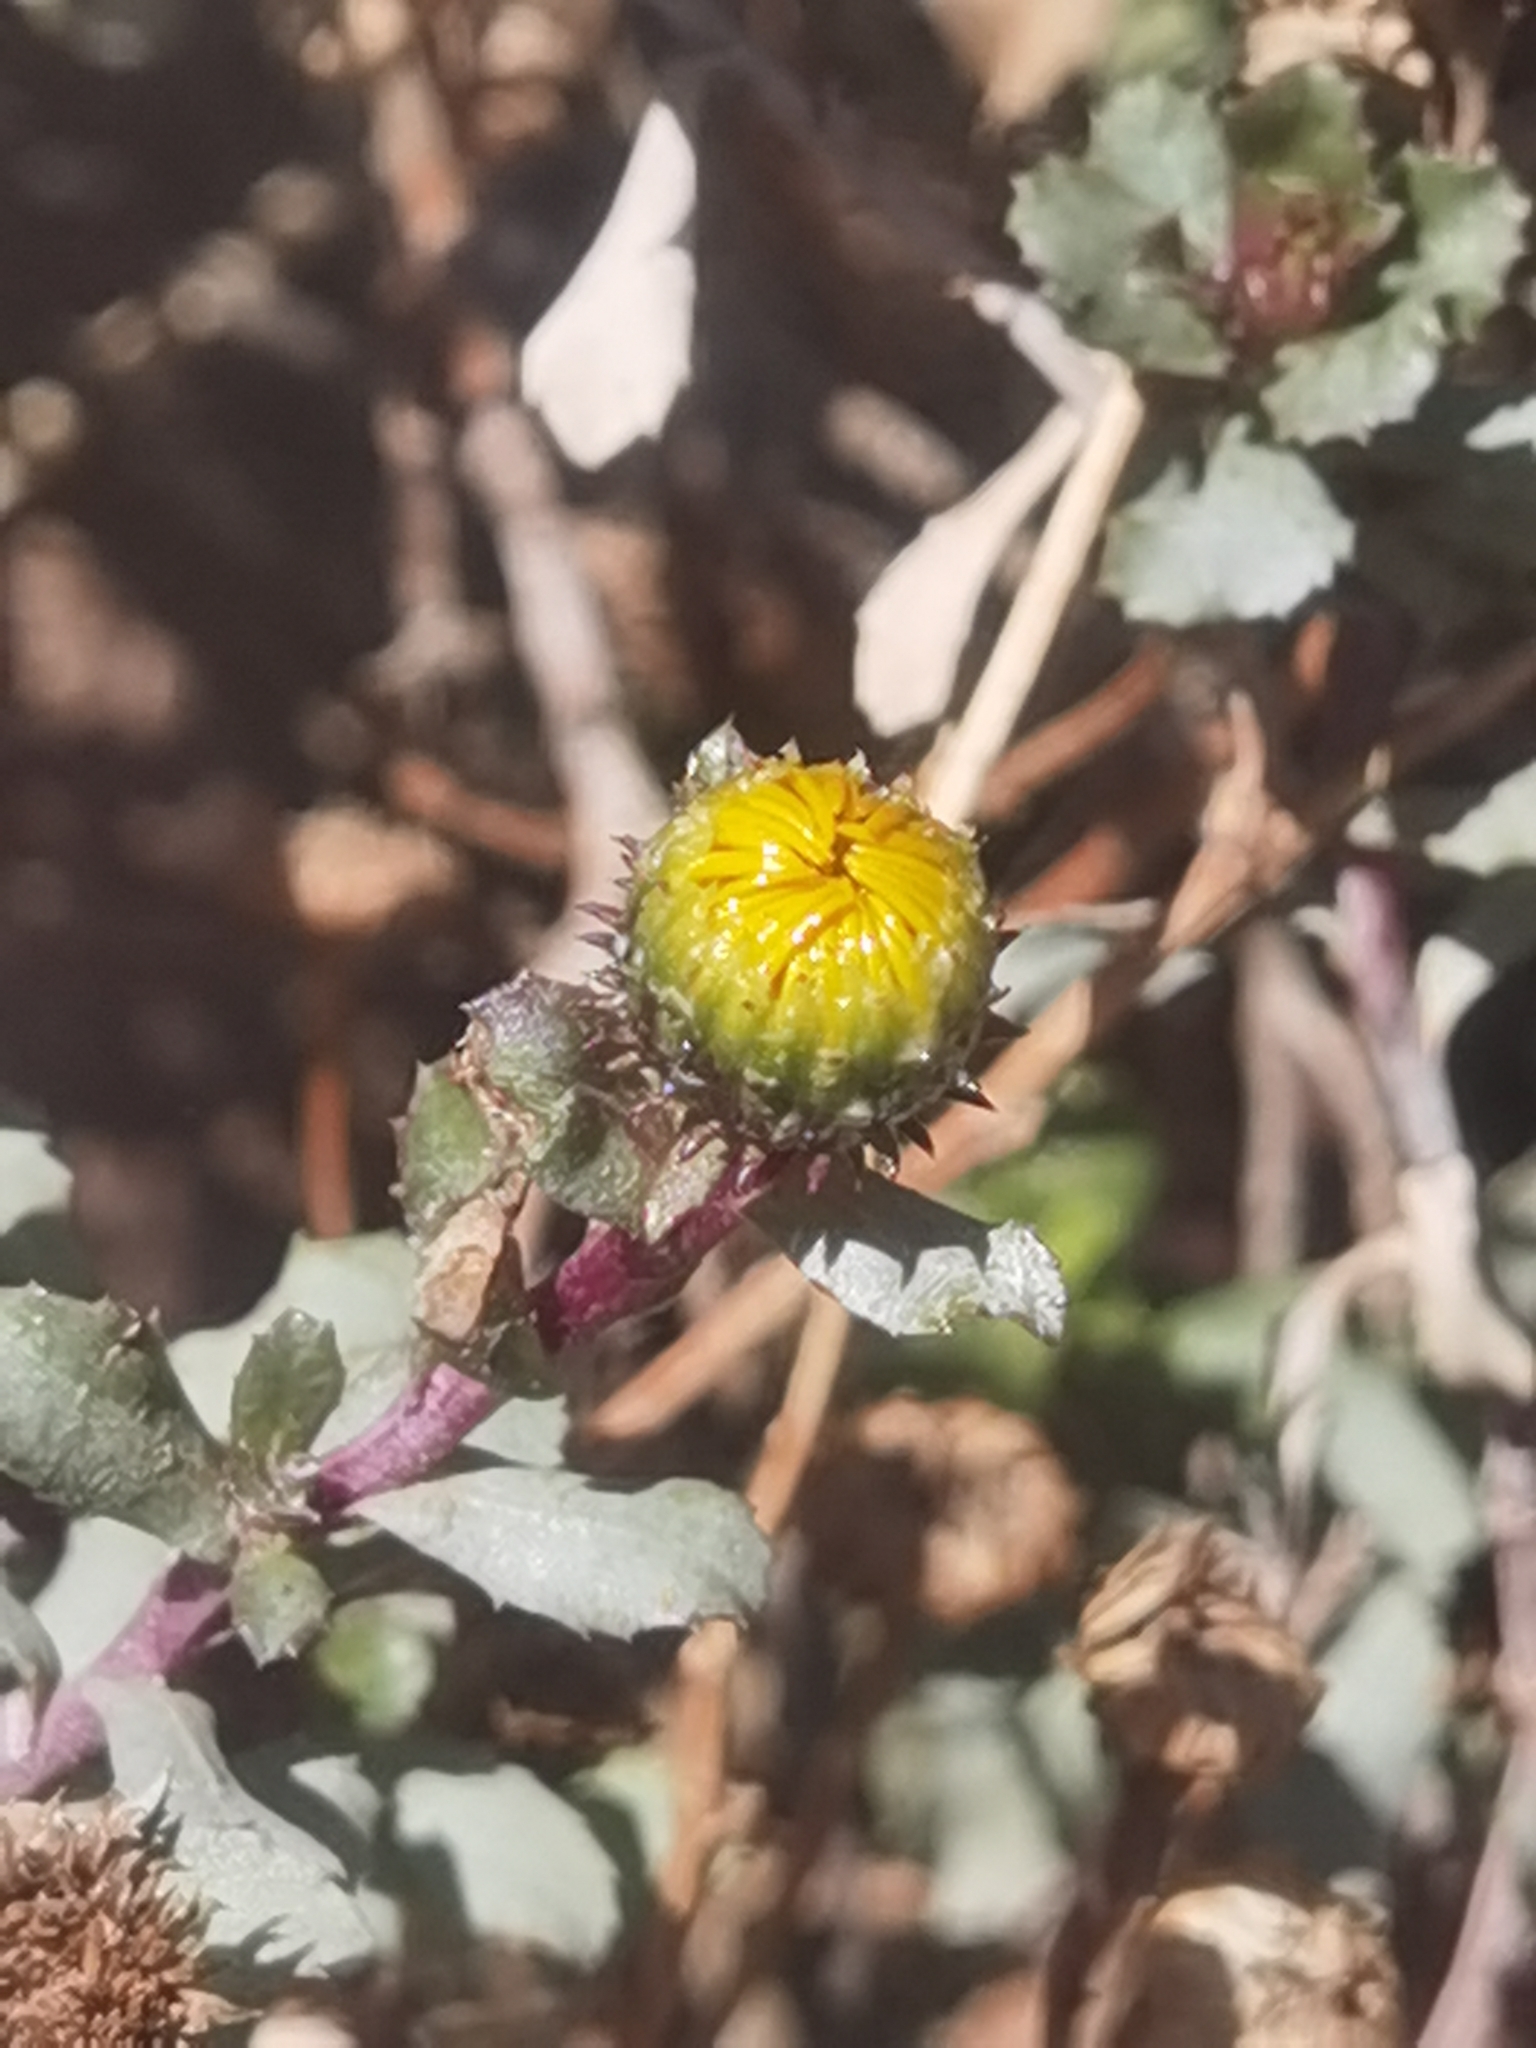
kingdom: Plantae
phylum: Tracheophyta
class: Magnoliopsida
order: Asterales
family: Asteraceae
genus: Grindelia
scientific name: Grindelia tarapacana
